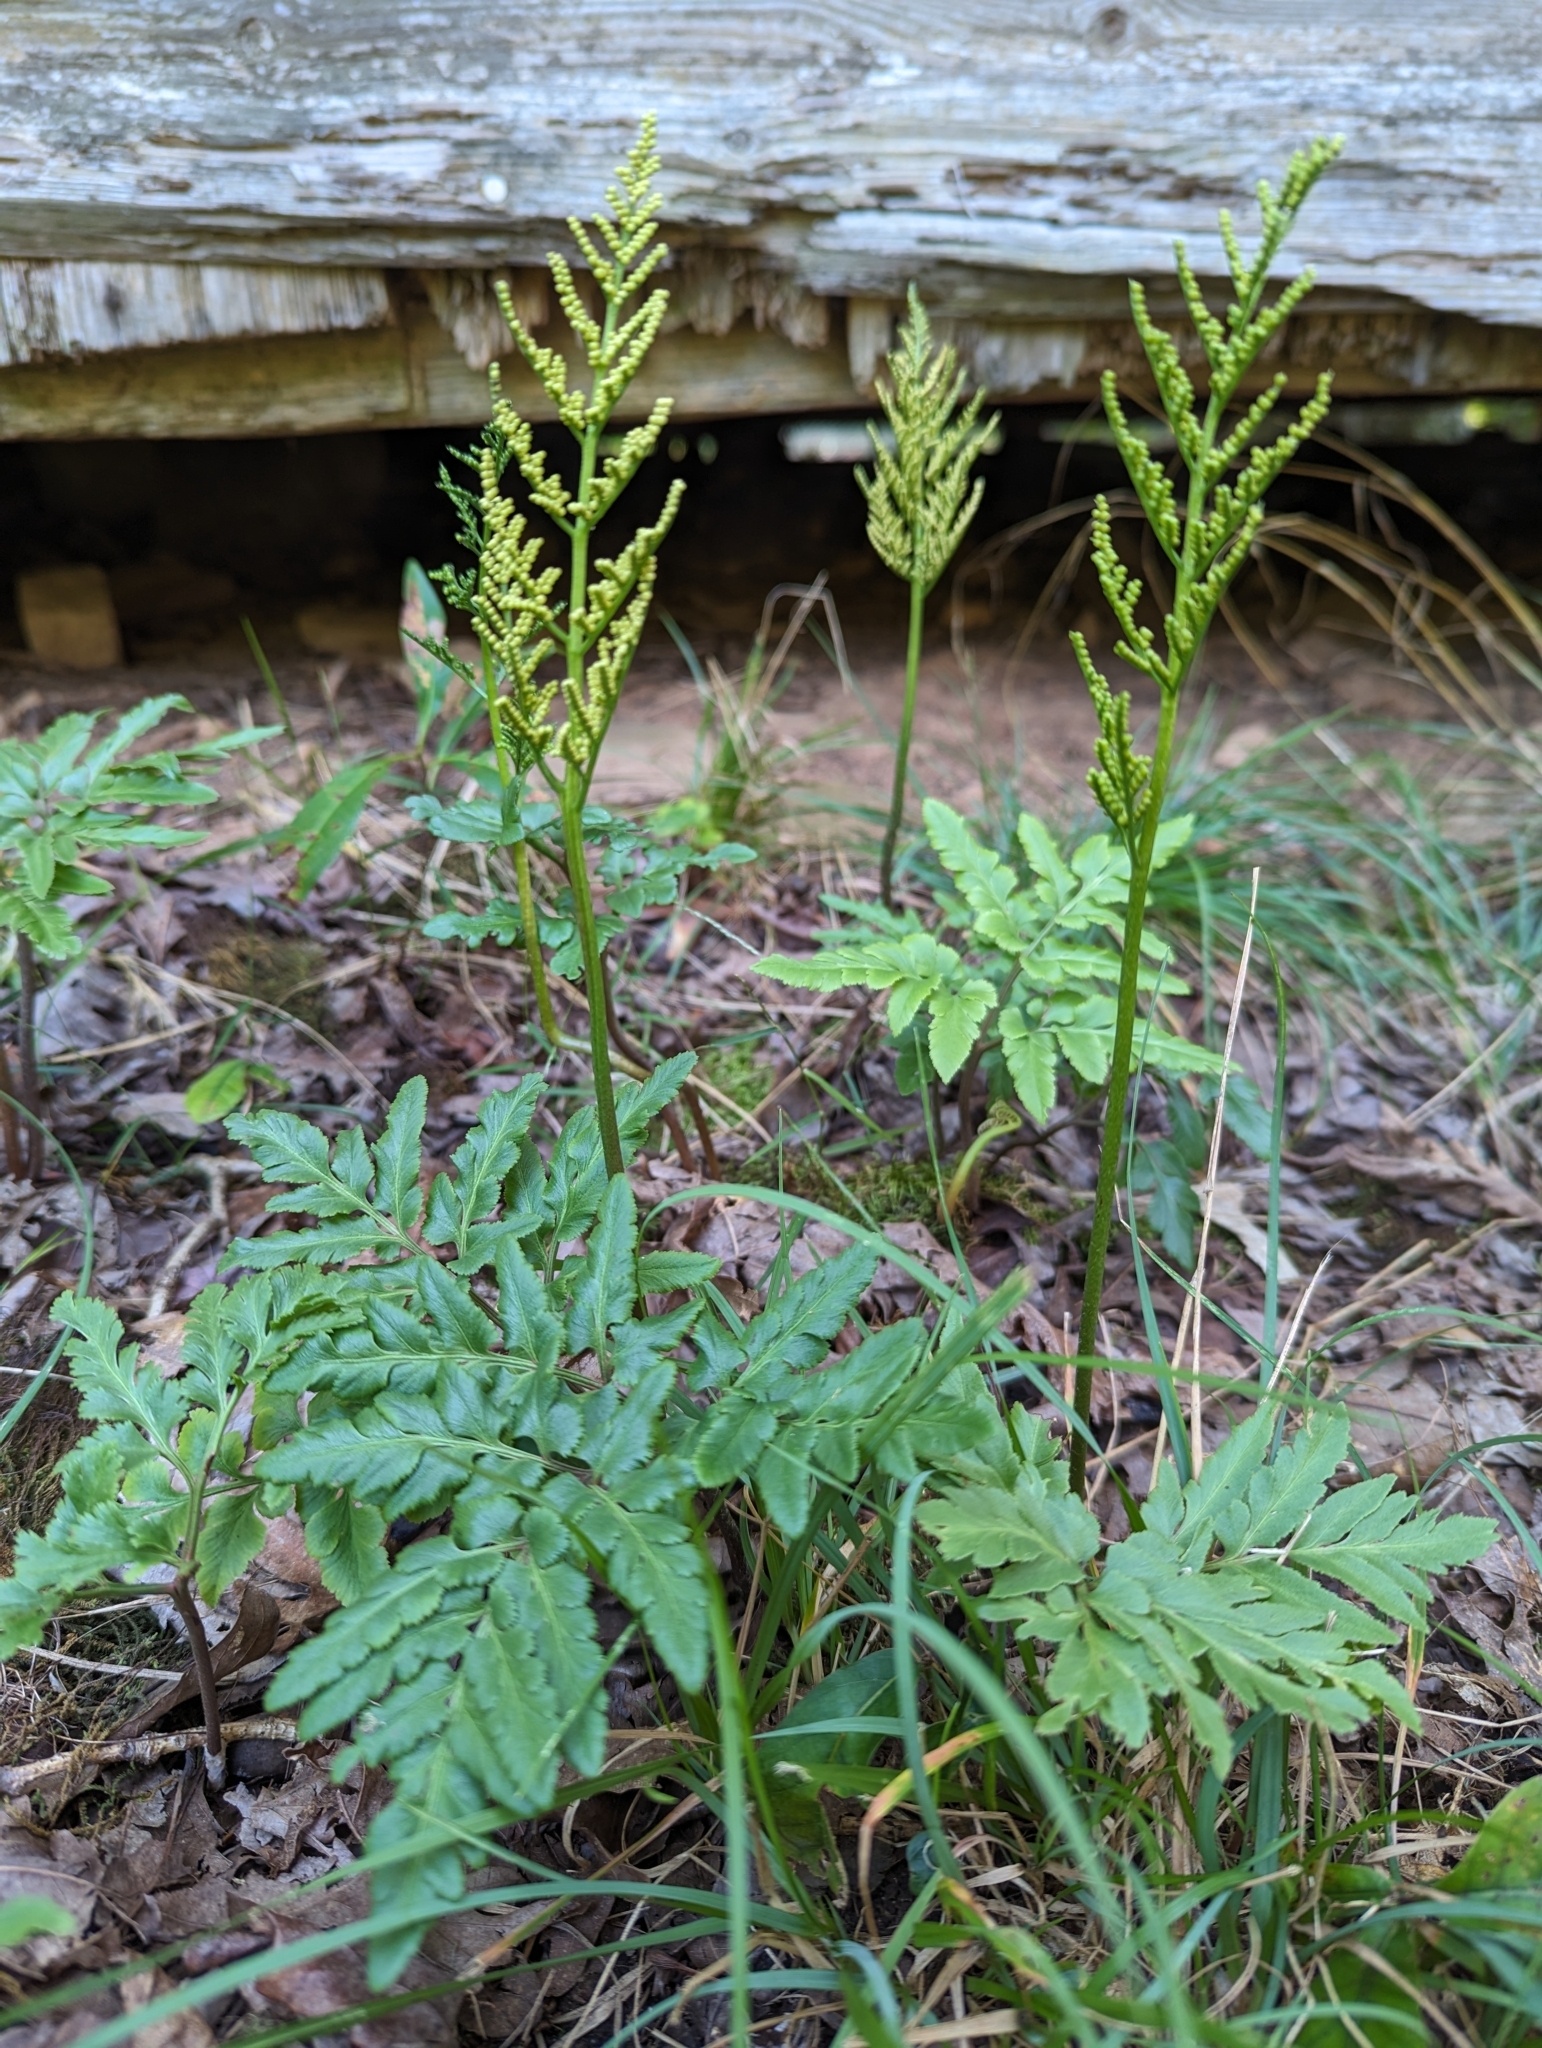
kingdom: Plantae
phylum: Tracheophyta
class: Polypodiopsida
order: Ophioglossales
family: Ophioglossaceae
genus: Sceptridium
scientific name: Sceptridium dissectum
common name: Cut-leaved grapefern
